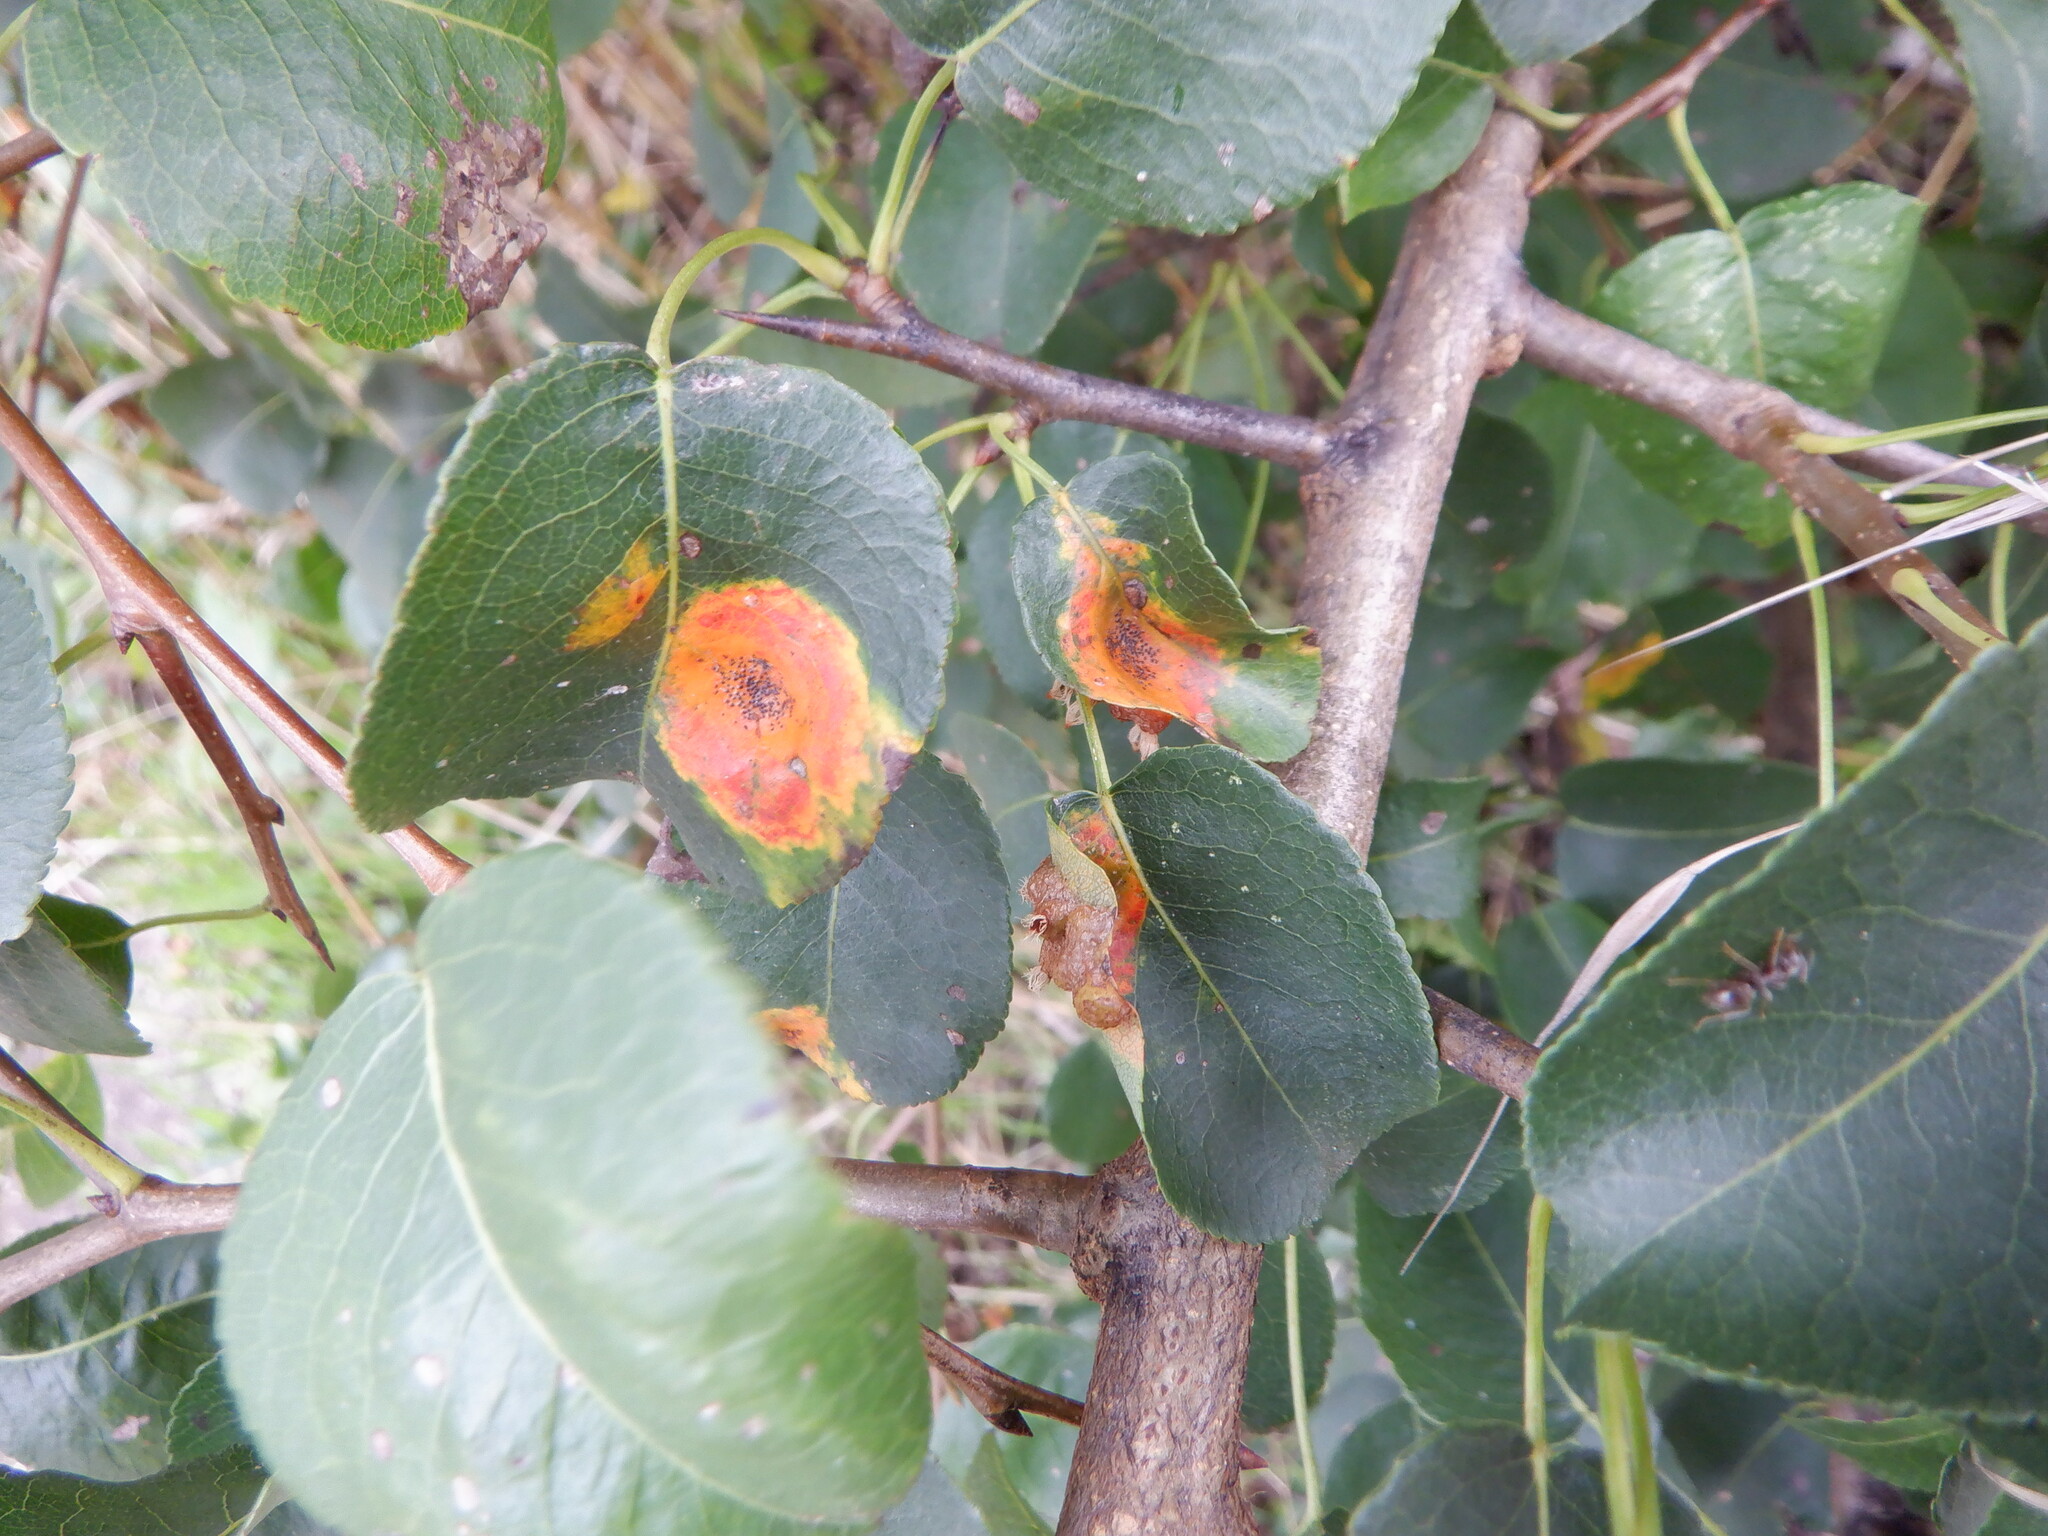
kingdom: Fungi
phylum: Basidiomycota
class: Pucciniomycetes
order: Pucciniales
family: Gymnosporangiaceae
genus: Gymnosporangium
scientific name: Gymnosporangium sabinae
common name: Pear trellis rust fungus
